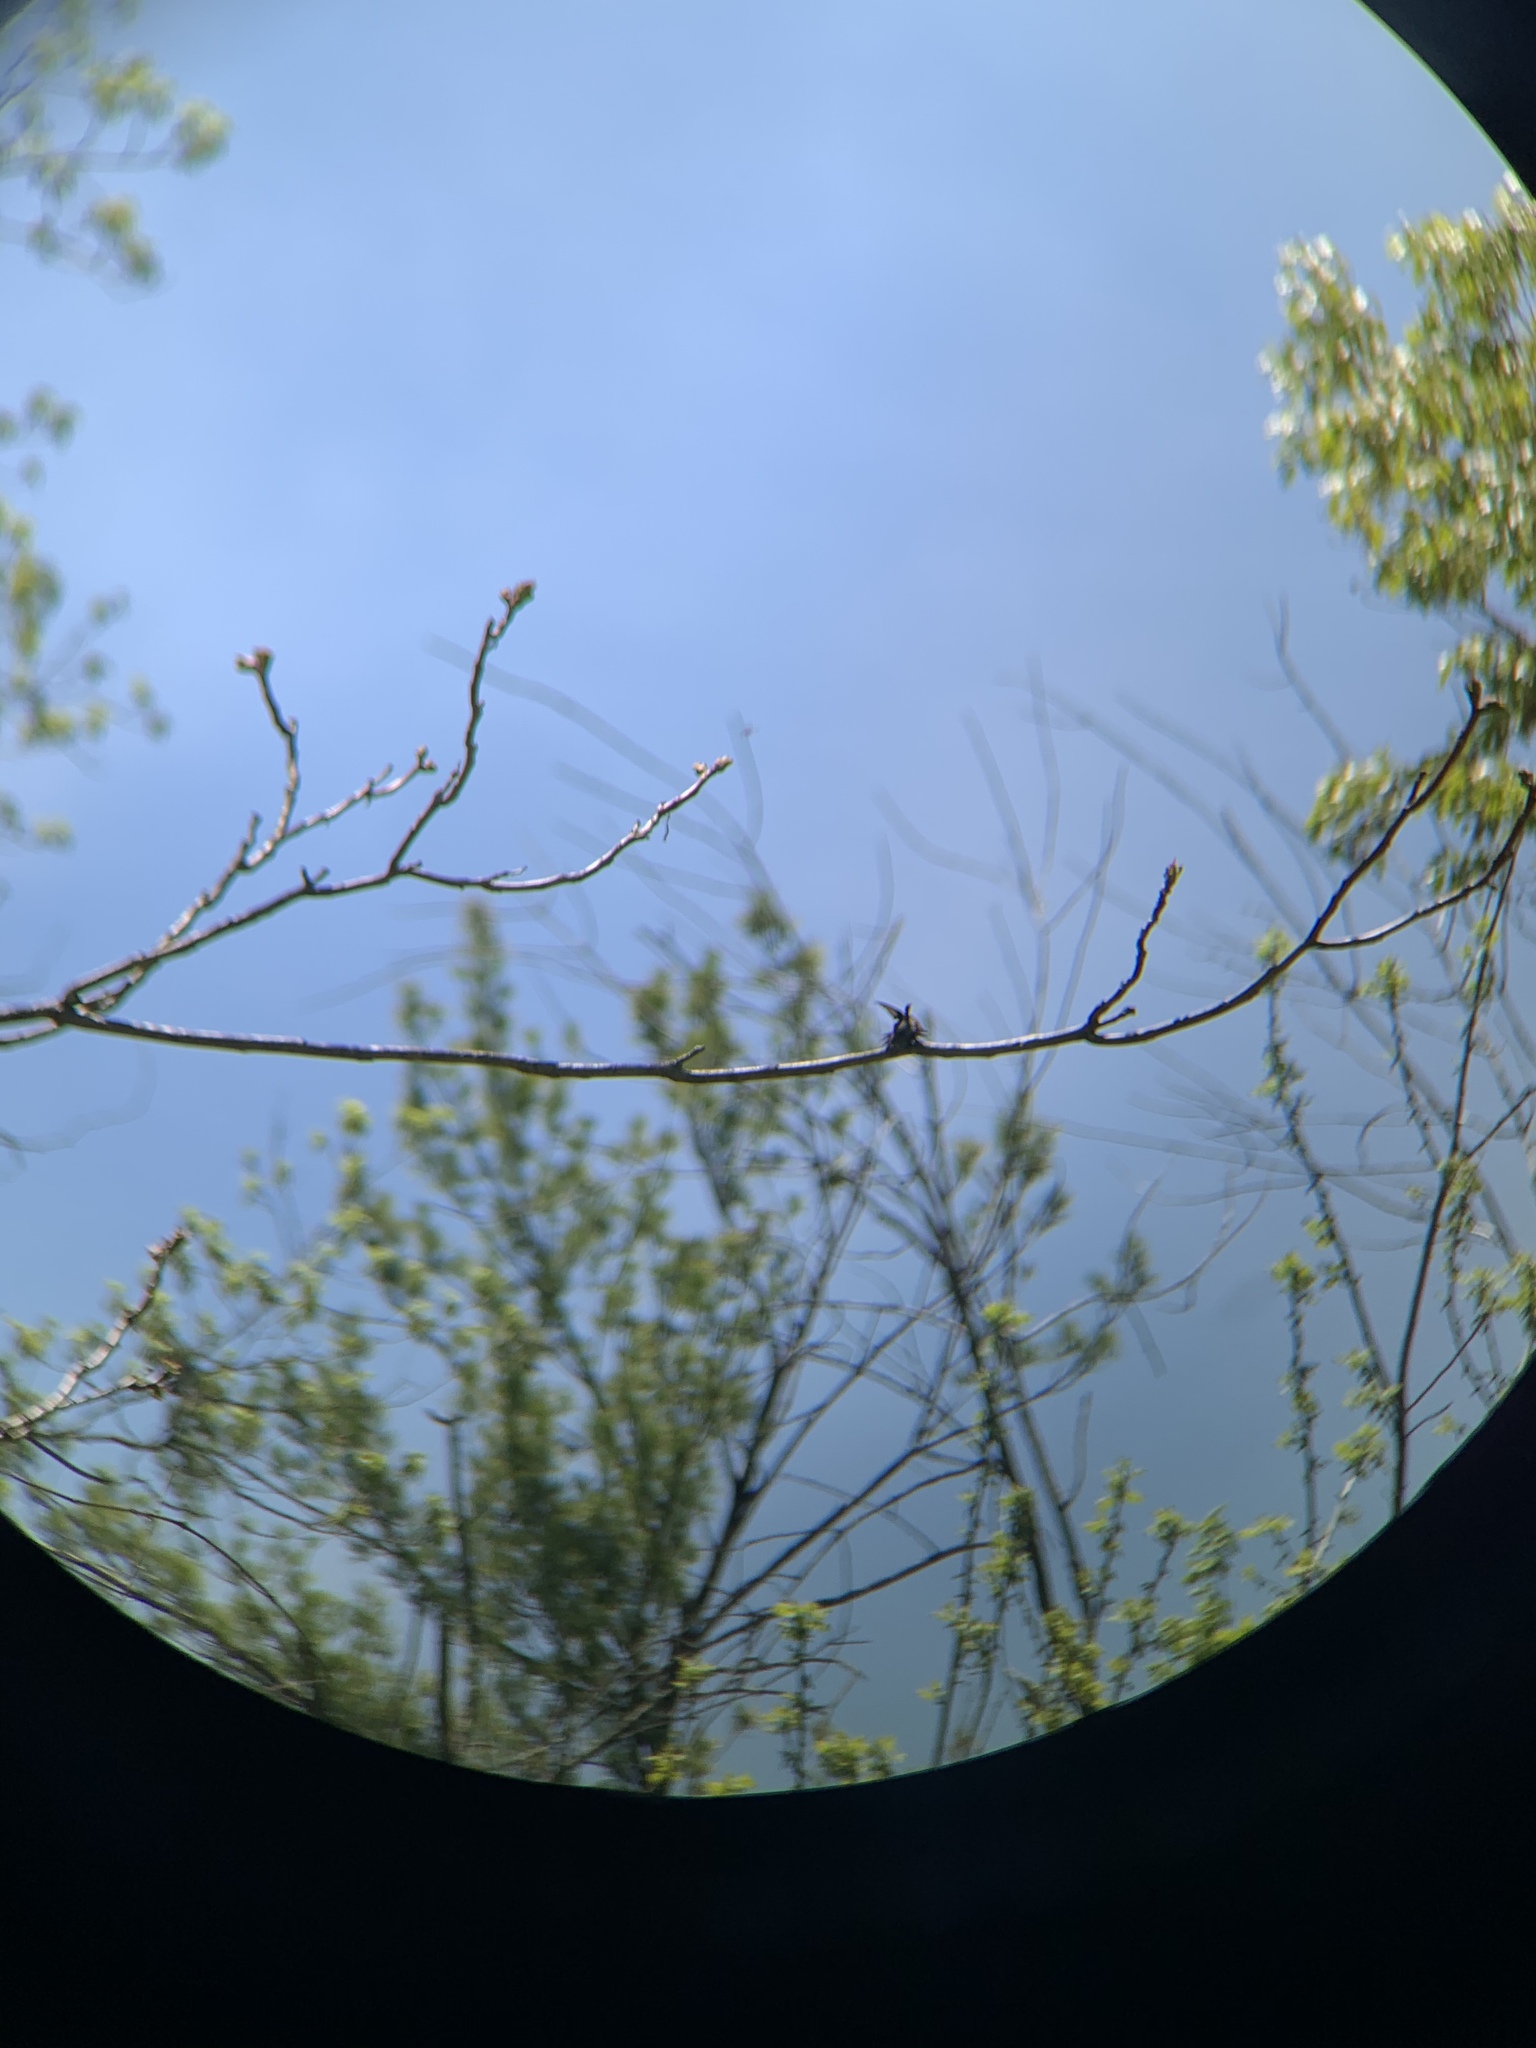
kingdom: Animalia
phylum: Chordata
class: Aves
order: Apodiformes
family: Trochilidae
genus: Archilochus
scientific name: Archilochus colubris
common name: Ruby-throated hummingbird
